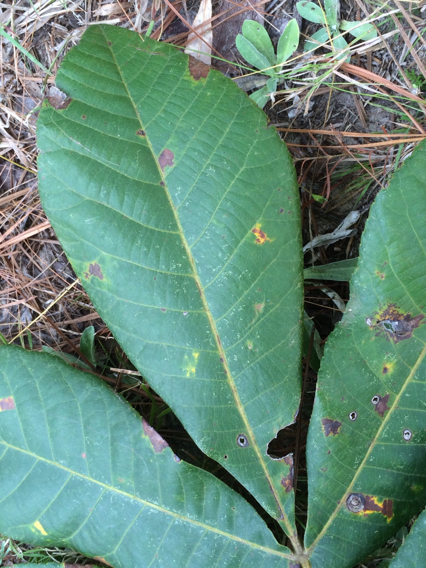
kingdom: Plantae
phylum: Tracheophyta
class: Magnoliopsida
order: Fagales
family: Juglandaceae
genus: Carya
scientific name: Carya alba
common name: Mockernut hickory
